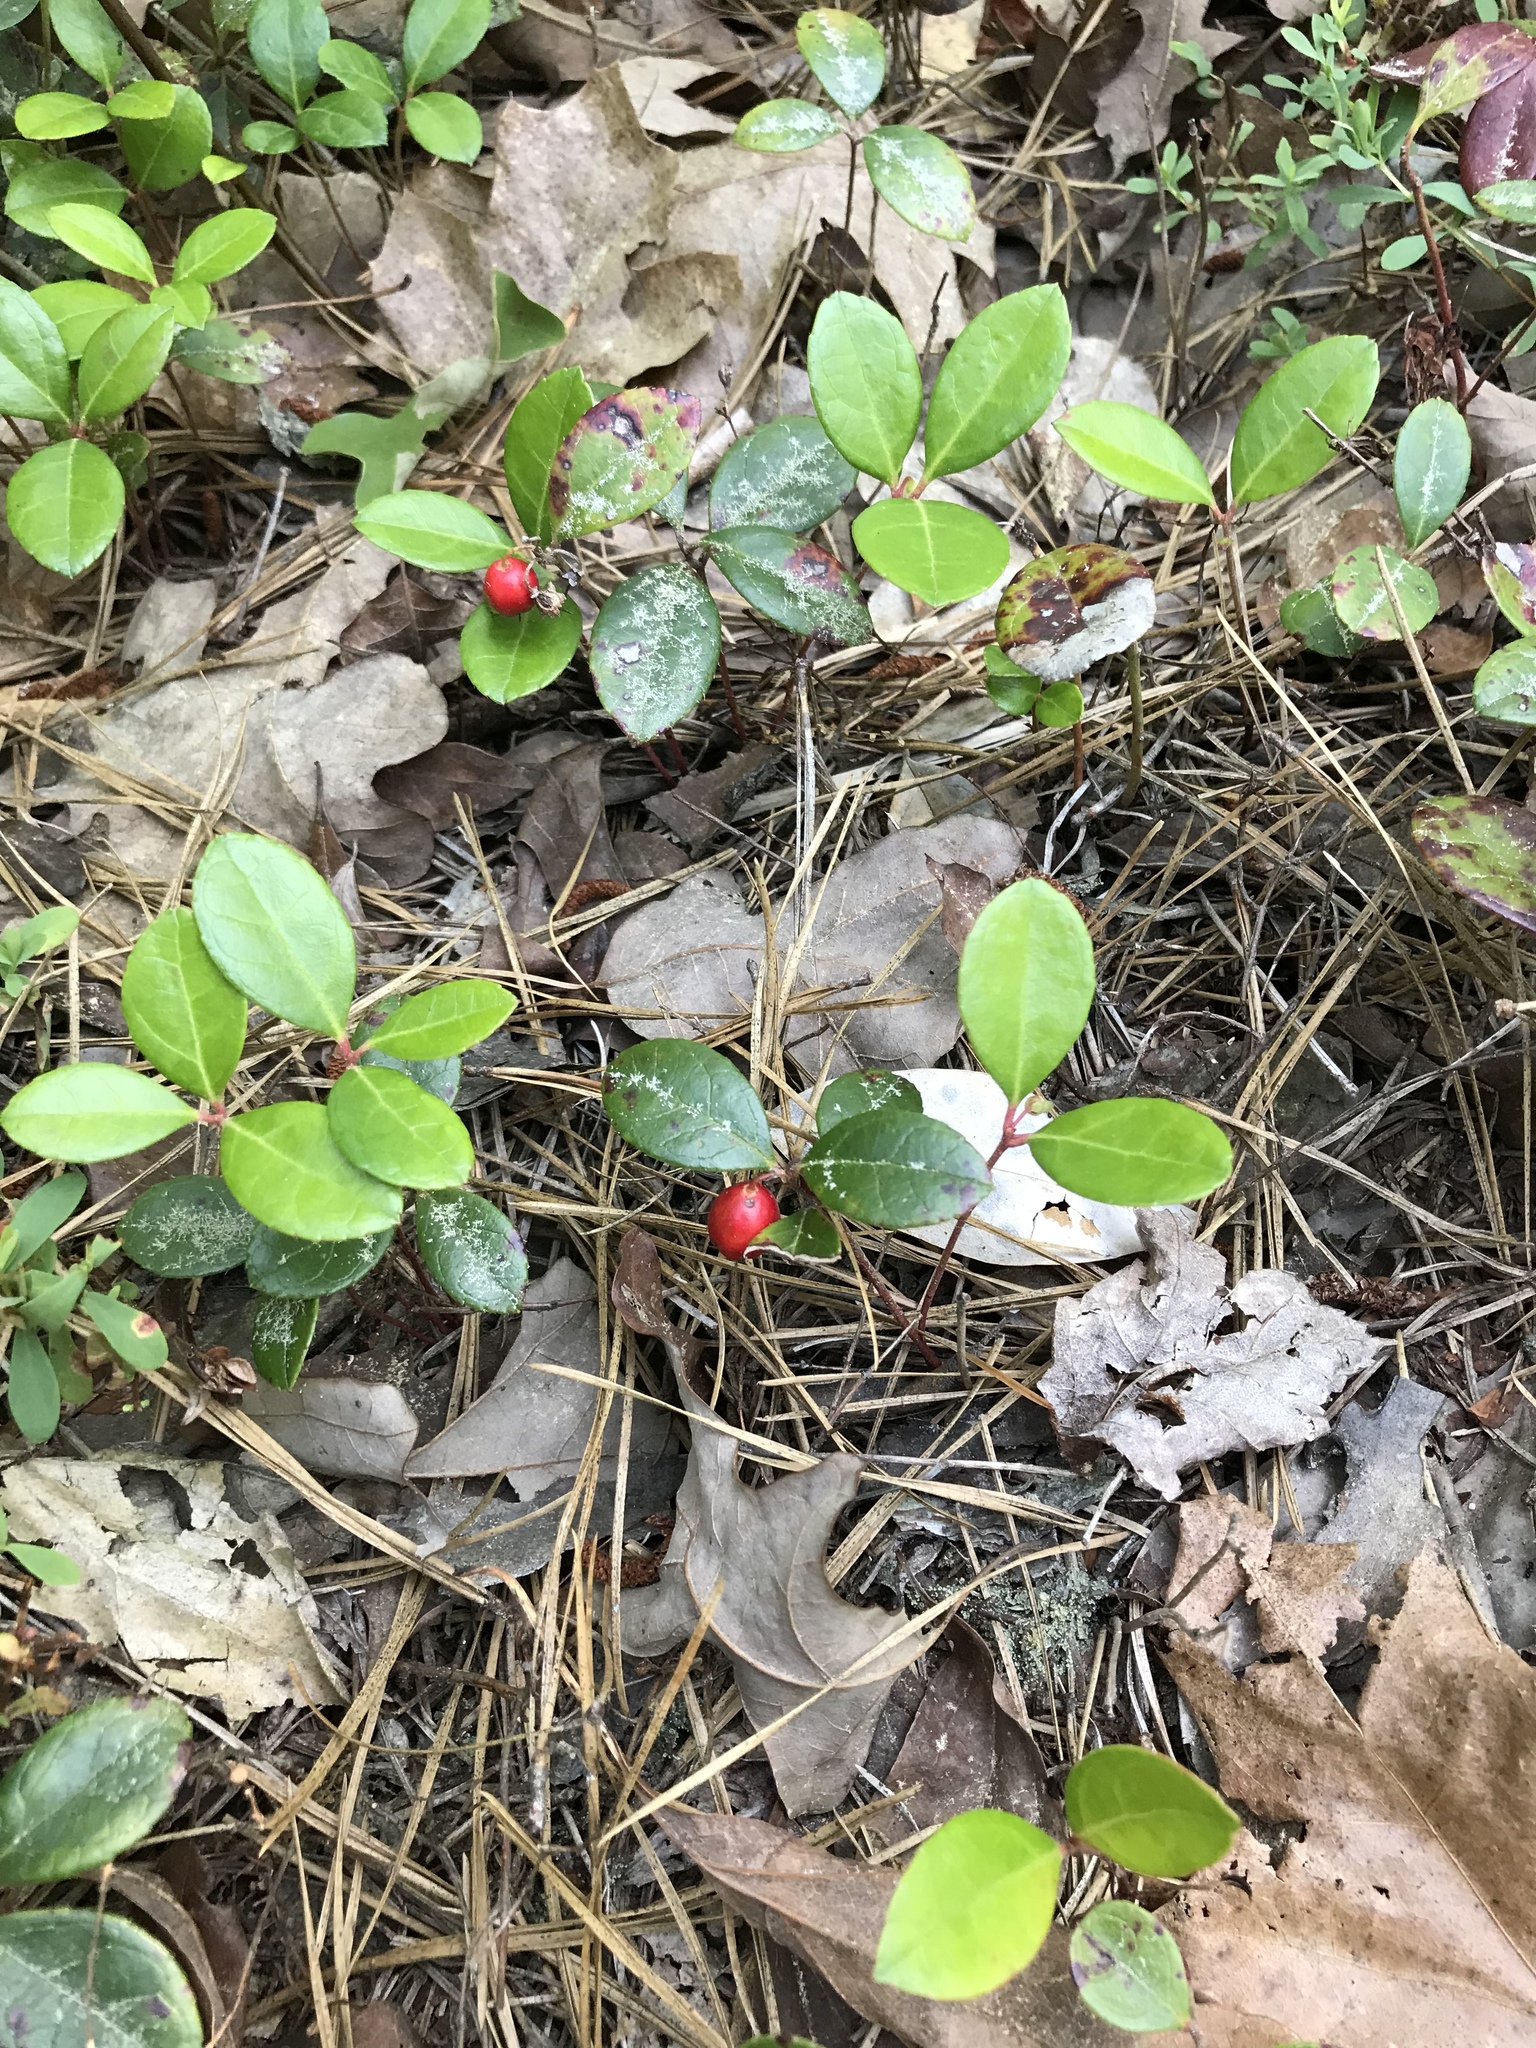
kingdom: Plantae
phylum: Tracheophyta
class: Magnoliopsida
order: Ericales
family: Ericaceae
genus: Gaultheria
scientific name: Gaultheria procumbens
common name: Checkerberry
